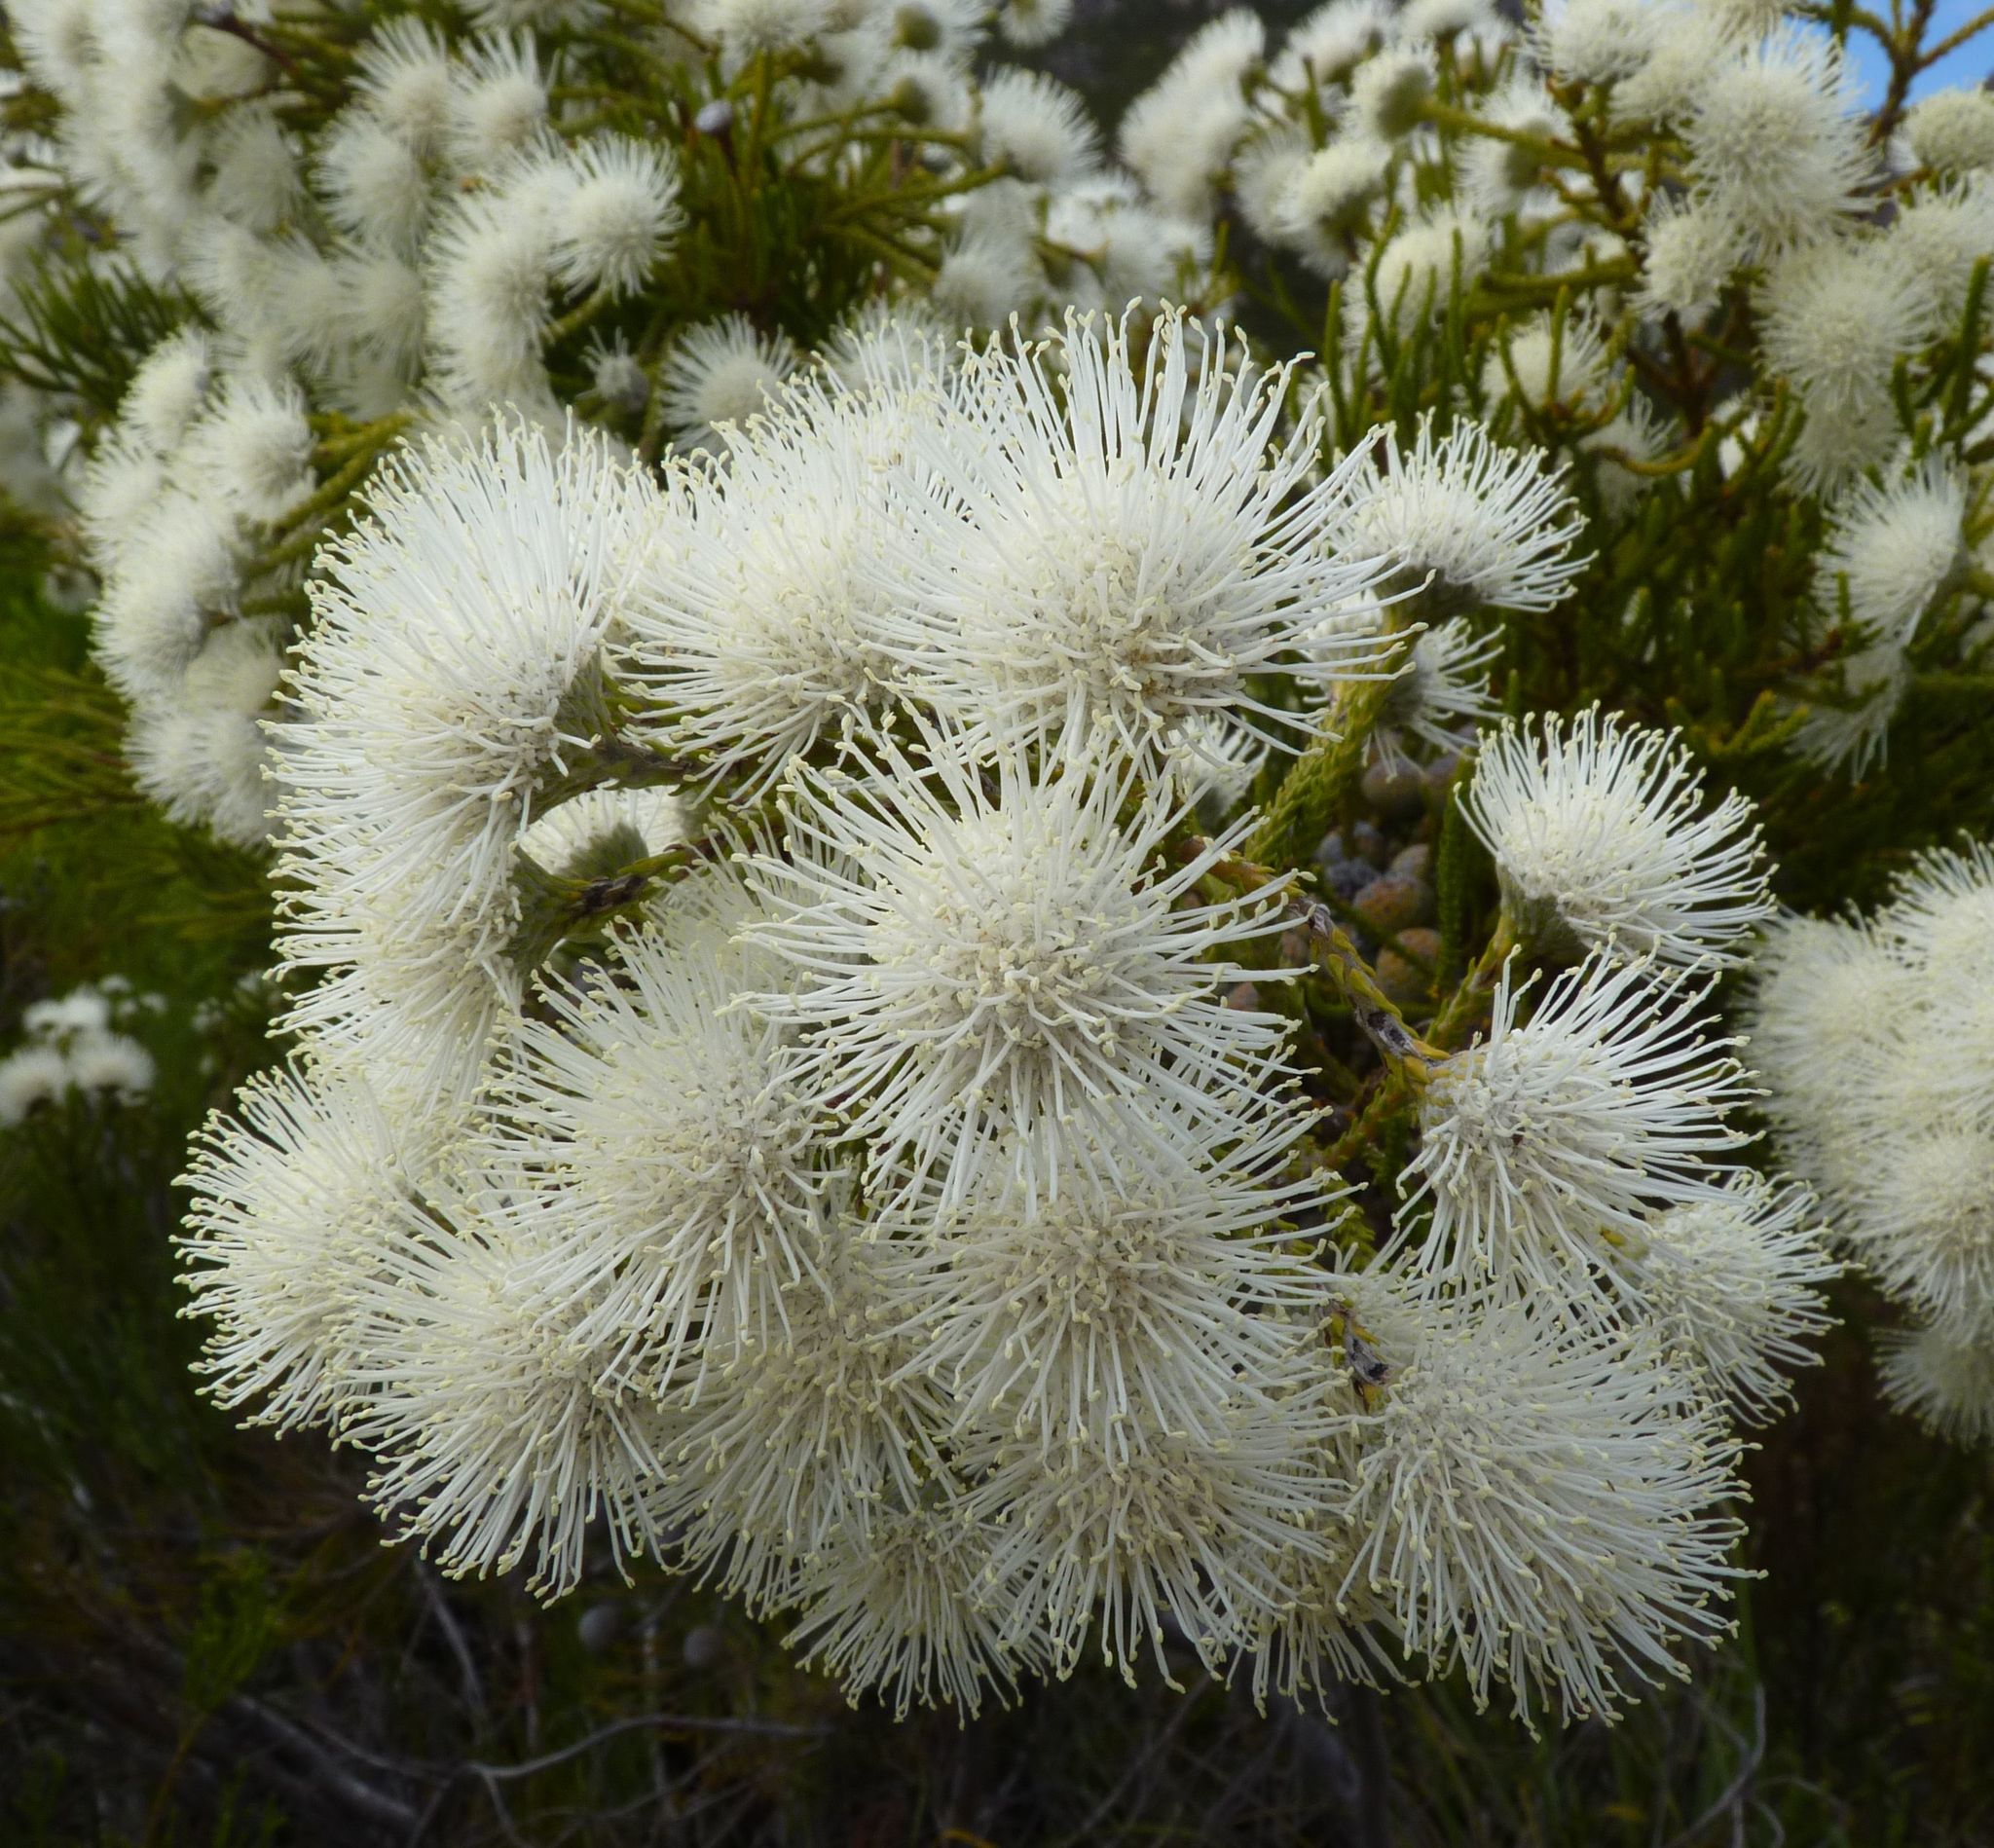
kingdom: Plantae
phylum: Tracheophyta
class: Magnoliopsida
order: Bruniales
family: Bruniaceae
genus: Brunia
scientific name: Brunia noduliflora
